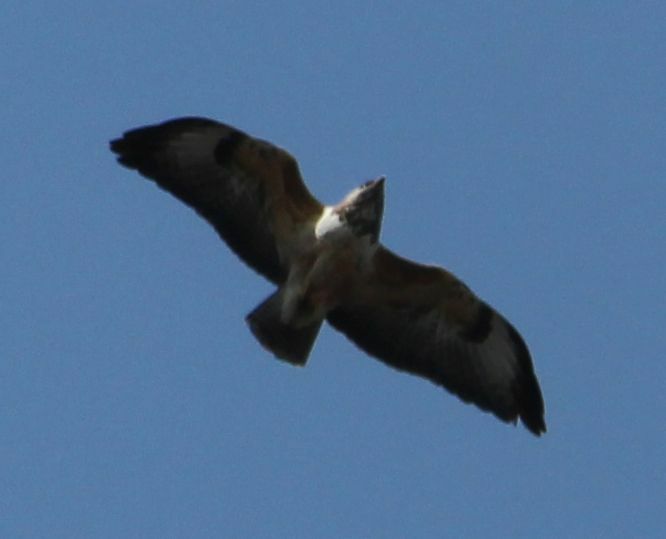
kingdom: Animalia
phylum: Chordata
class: Aves
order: Accipitriformes
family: Accipitridae
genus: Buteo
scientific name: Buteo buteo
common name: Common buzzard
